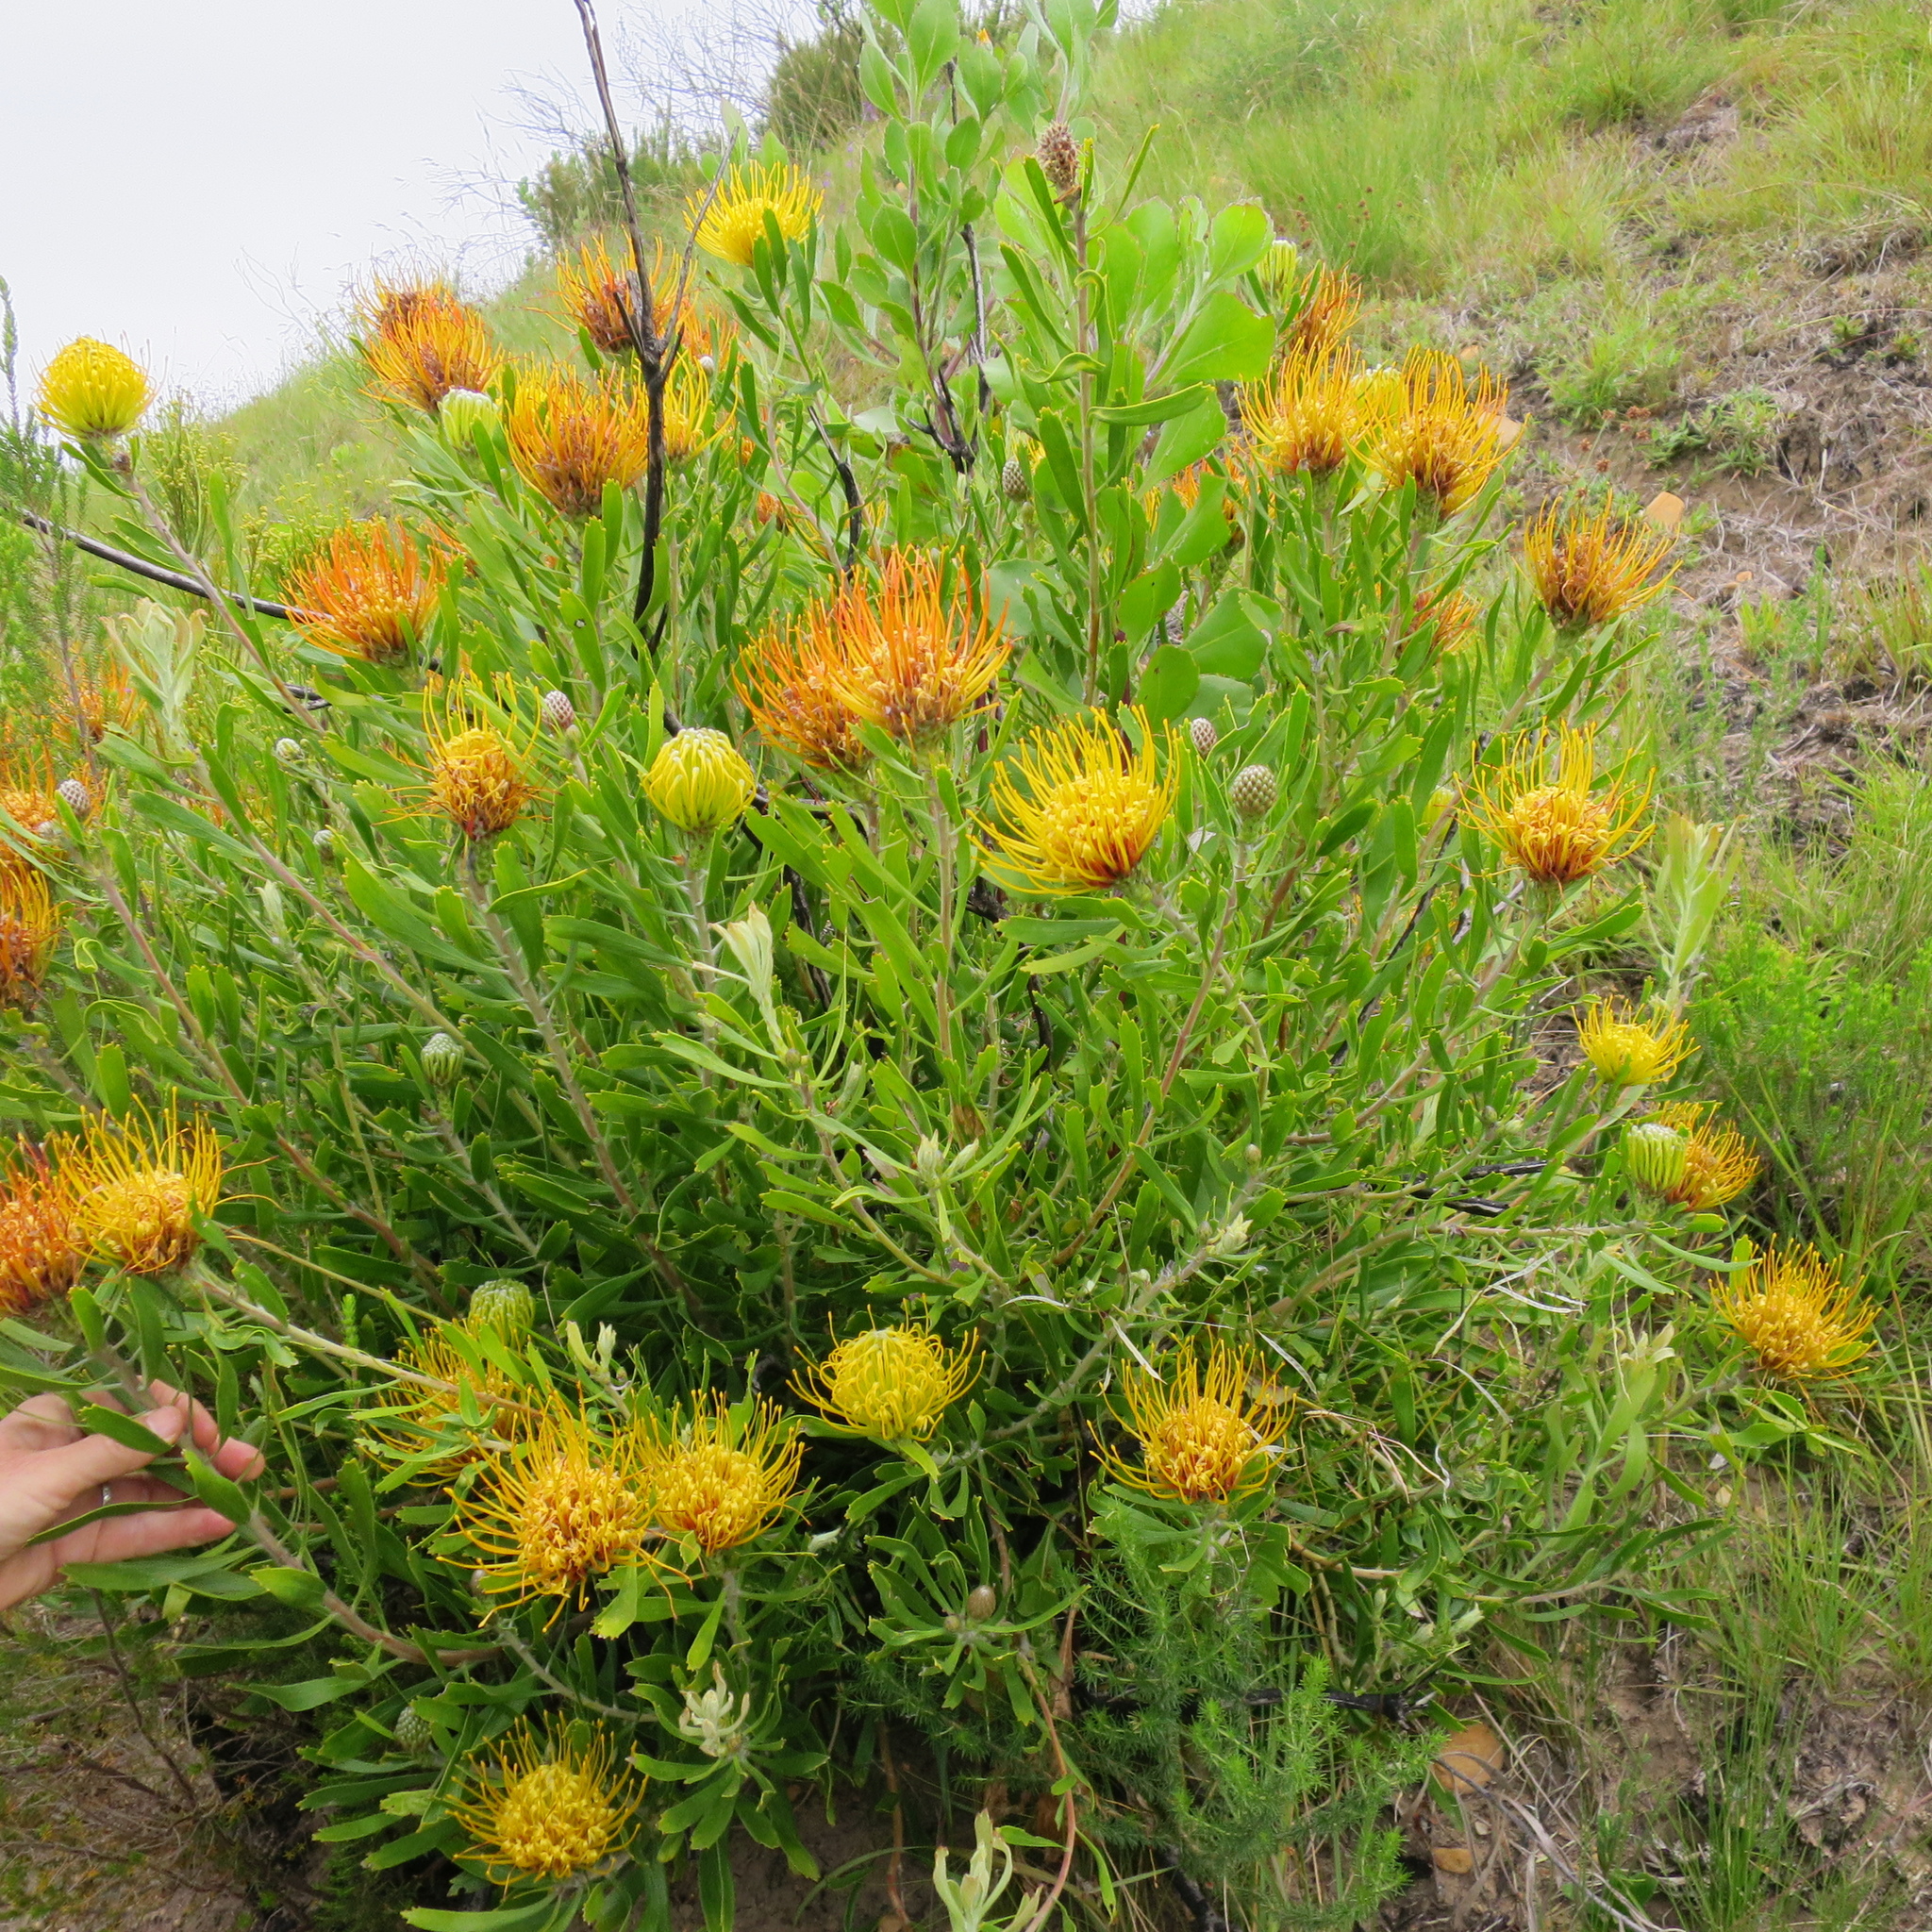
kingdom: Plantae
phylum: Tracheophyta
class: Magnoliopsida
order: Proteales
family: Proteaceae
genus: Leucospermum
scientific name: Leucospermum cuneiforme
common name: Common pincushion
